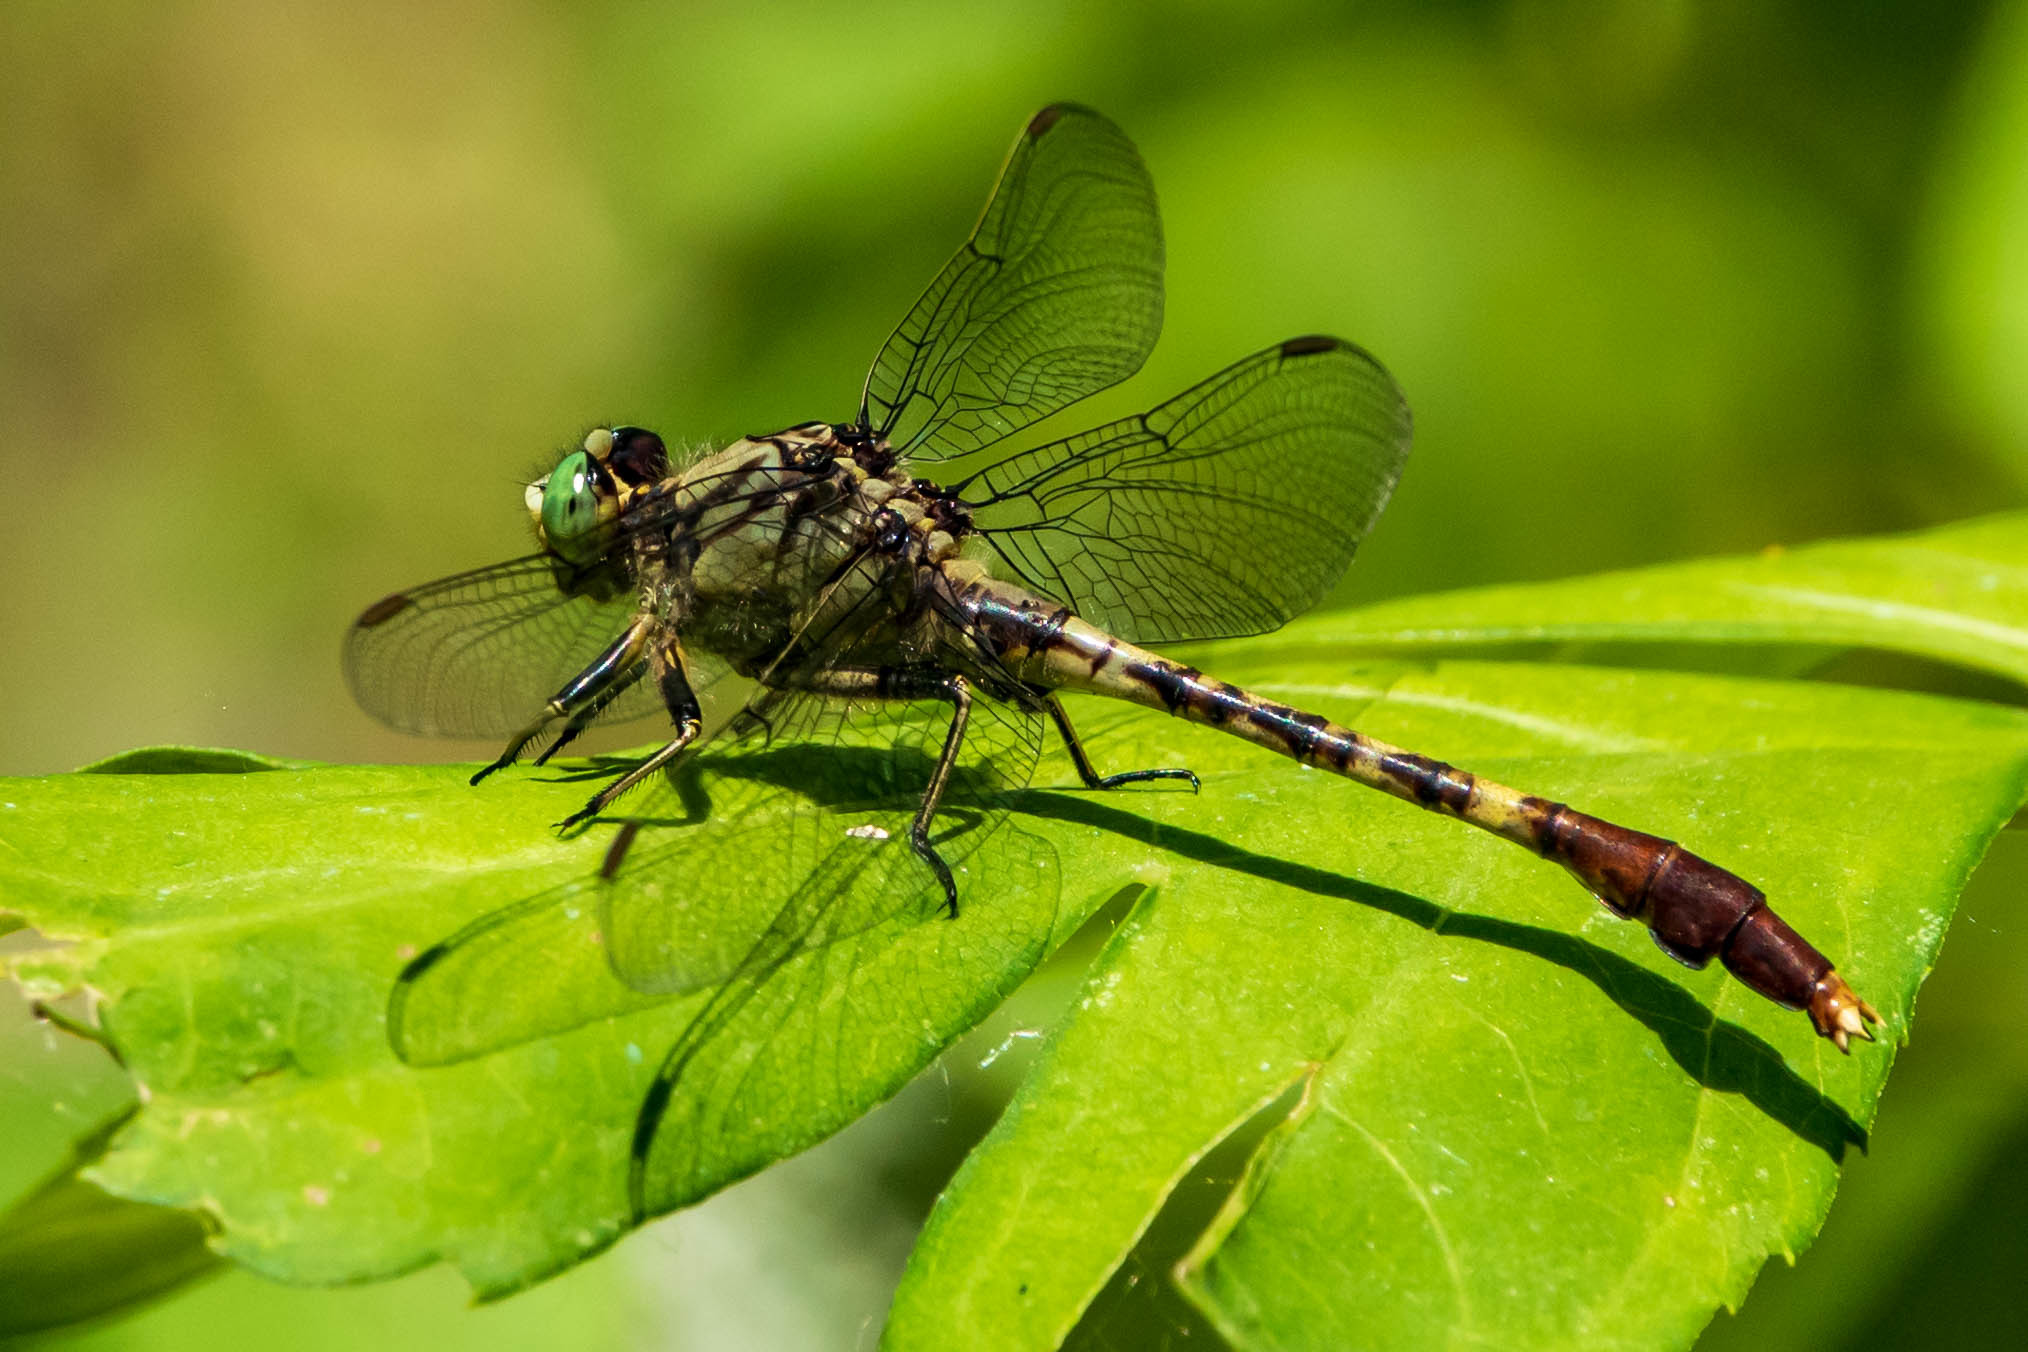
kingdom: Animalia
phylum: Arthropoda
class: Insecta
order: Odonata
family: Gomphidae
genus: Arigomphus
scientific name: Arigomphus submedianus
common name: Jade clubtail
